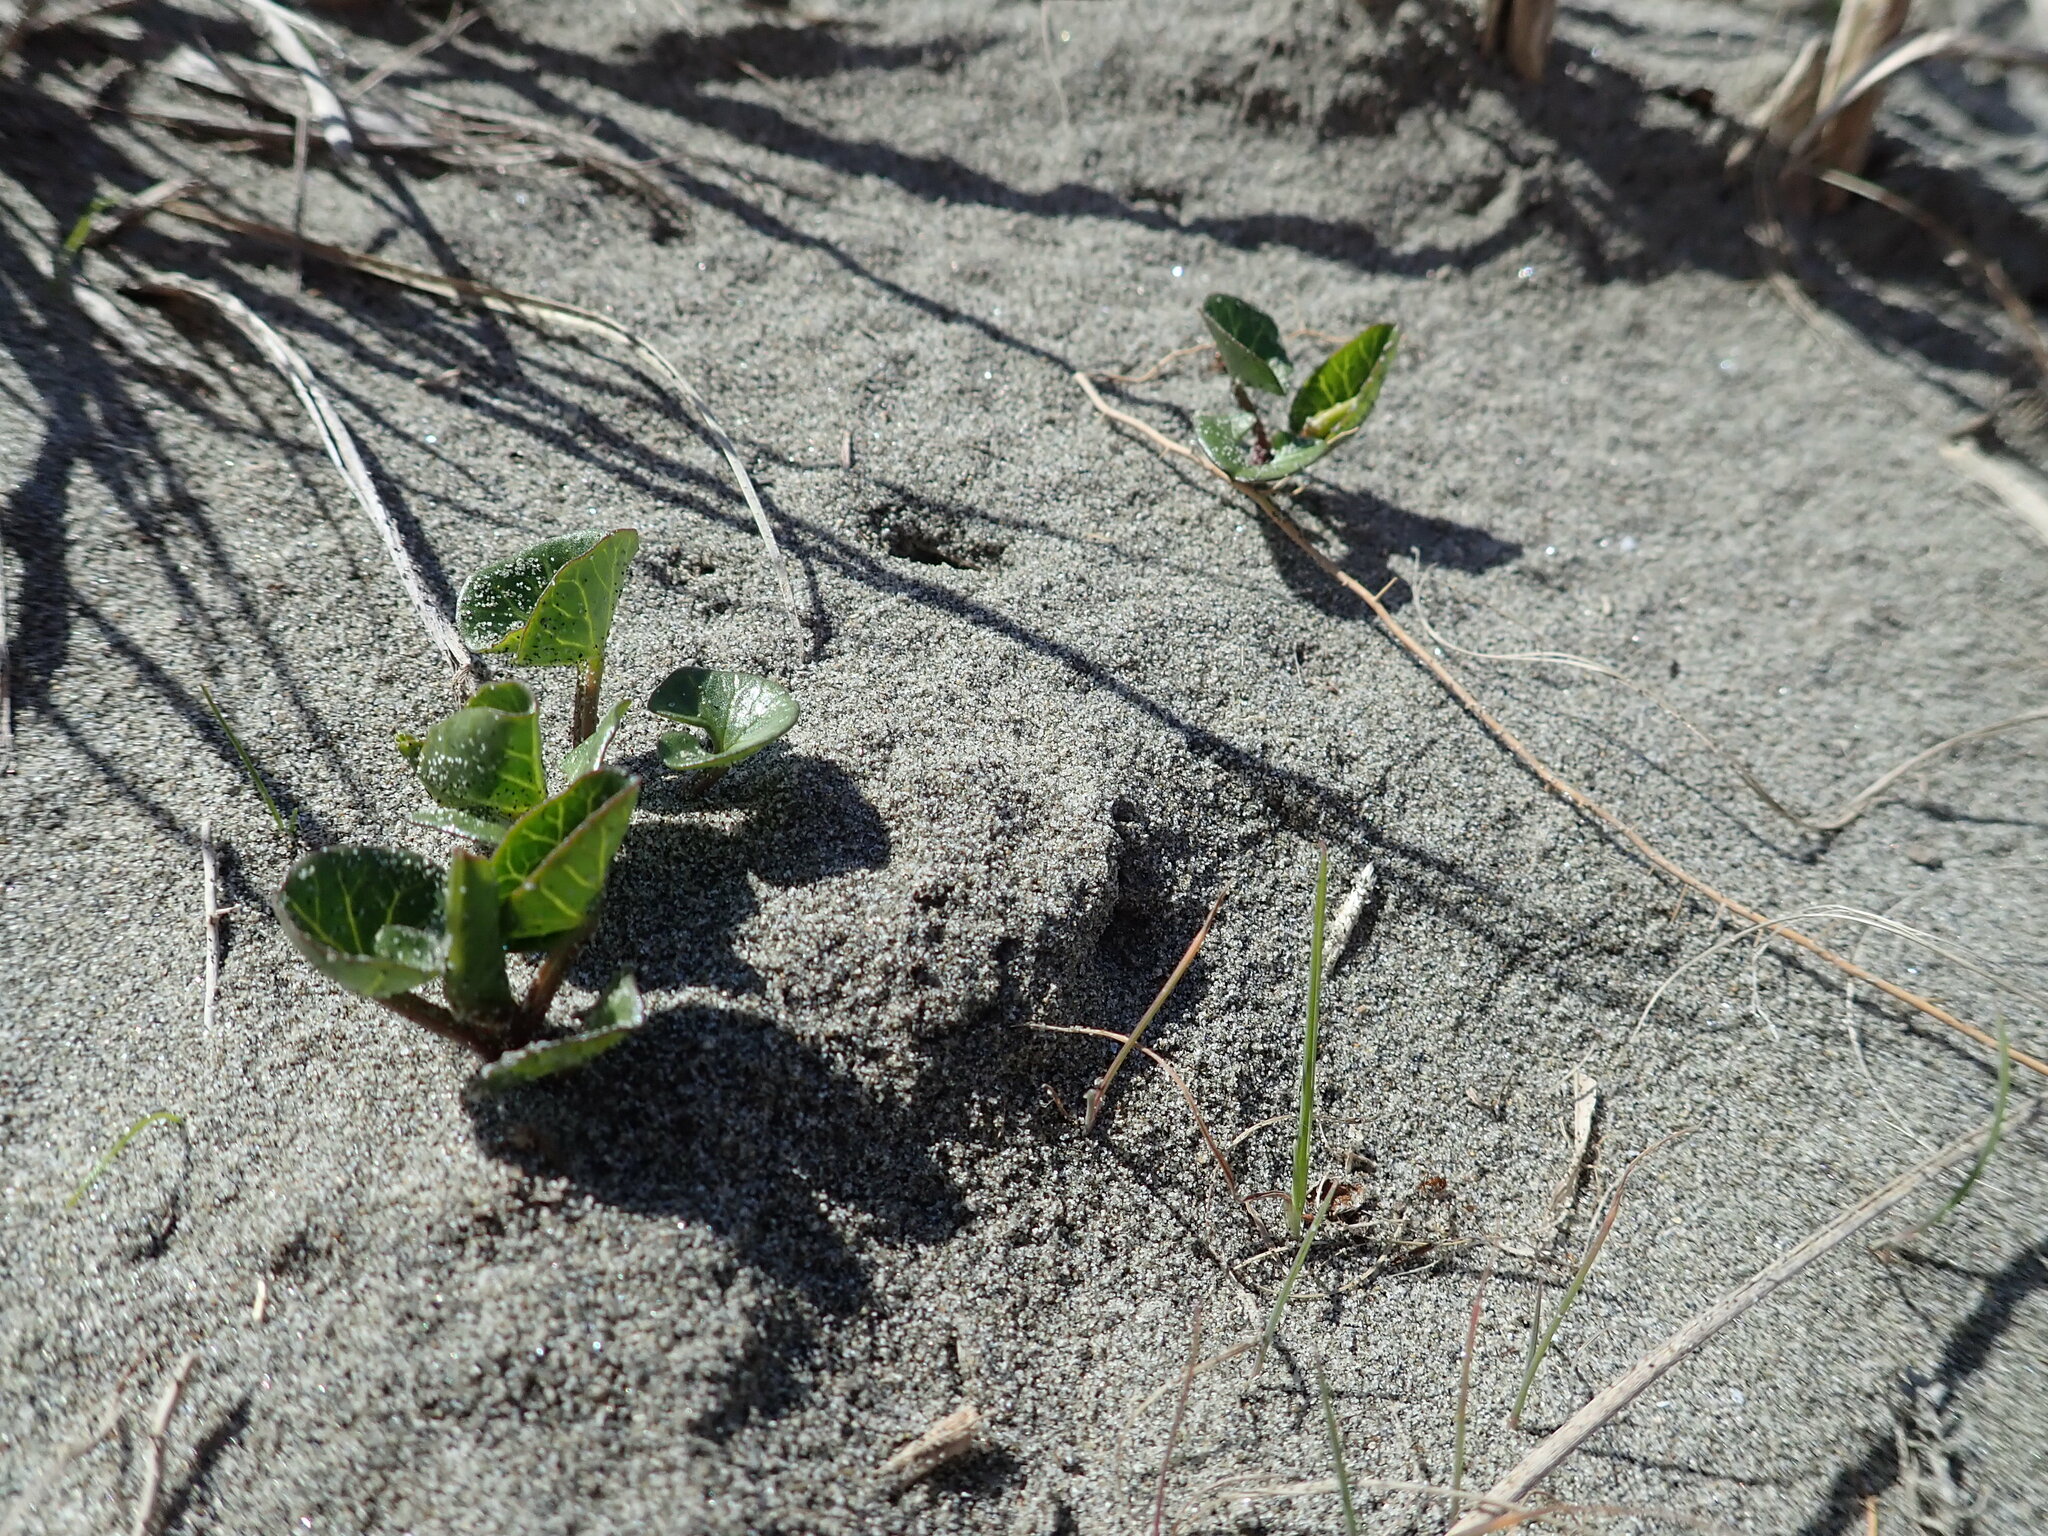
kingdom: Plantae
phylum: Tracheophyta
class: Magnoliopsida
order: Solanales
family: Convolvulaceae
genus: Calystegia
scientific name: Calystegia soldanella
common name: Sea bindweed
